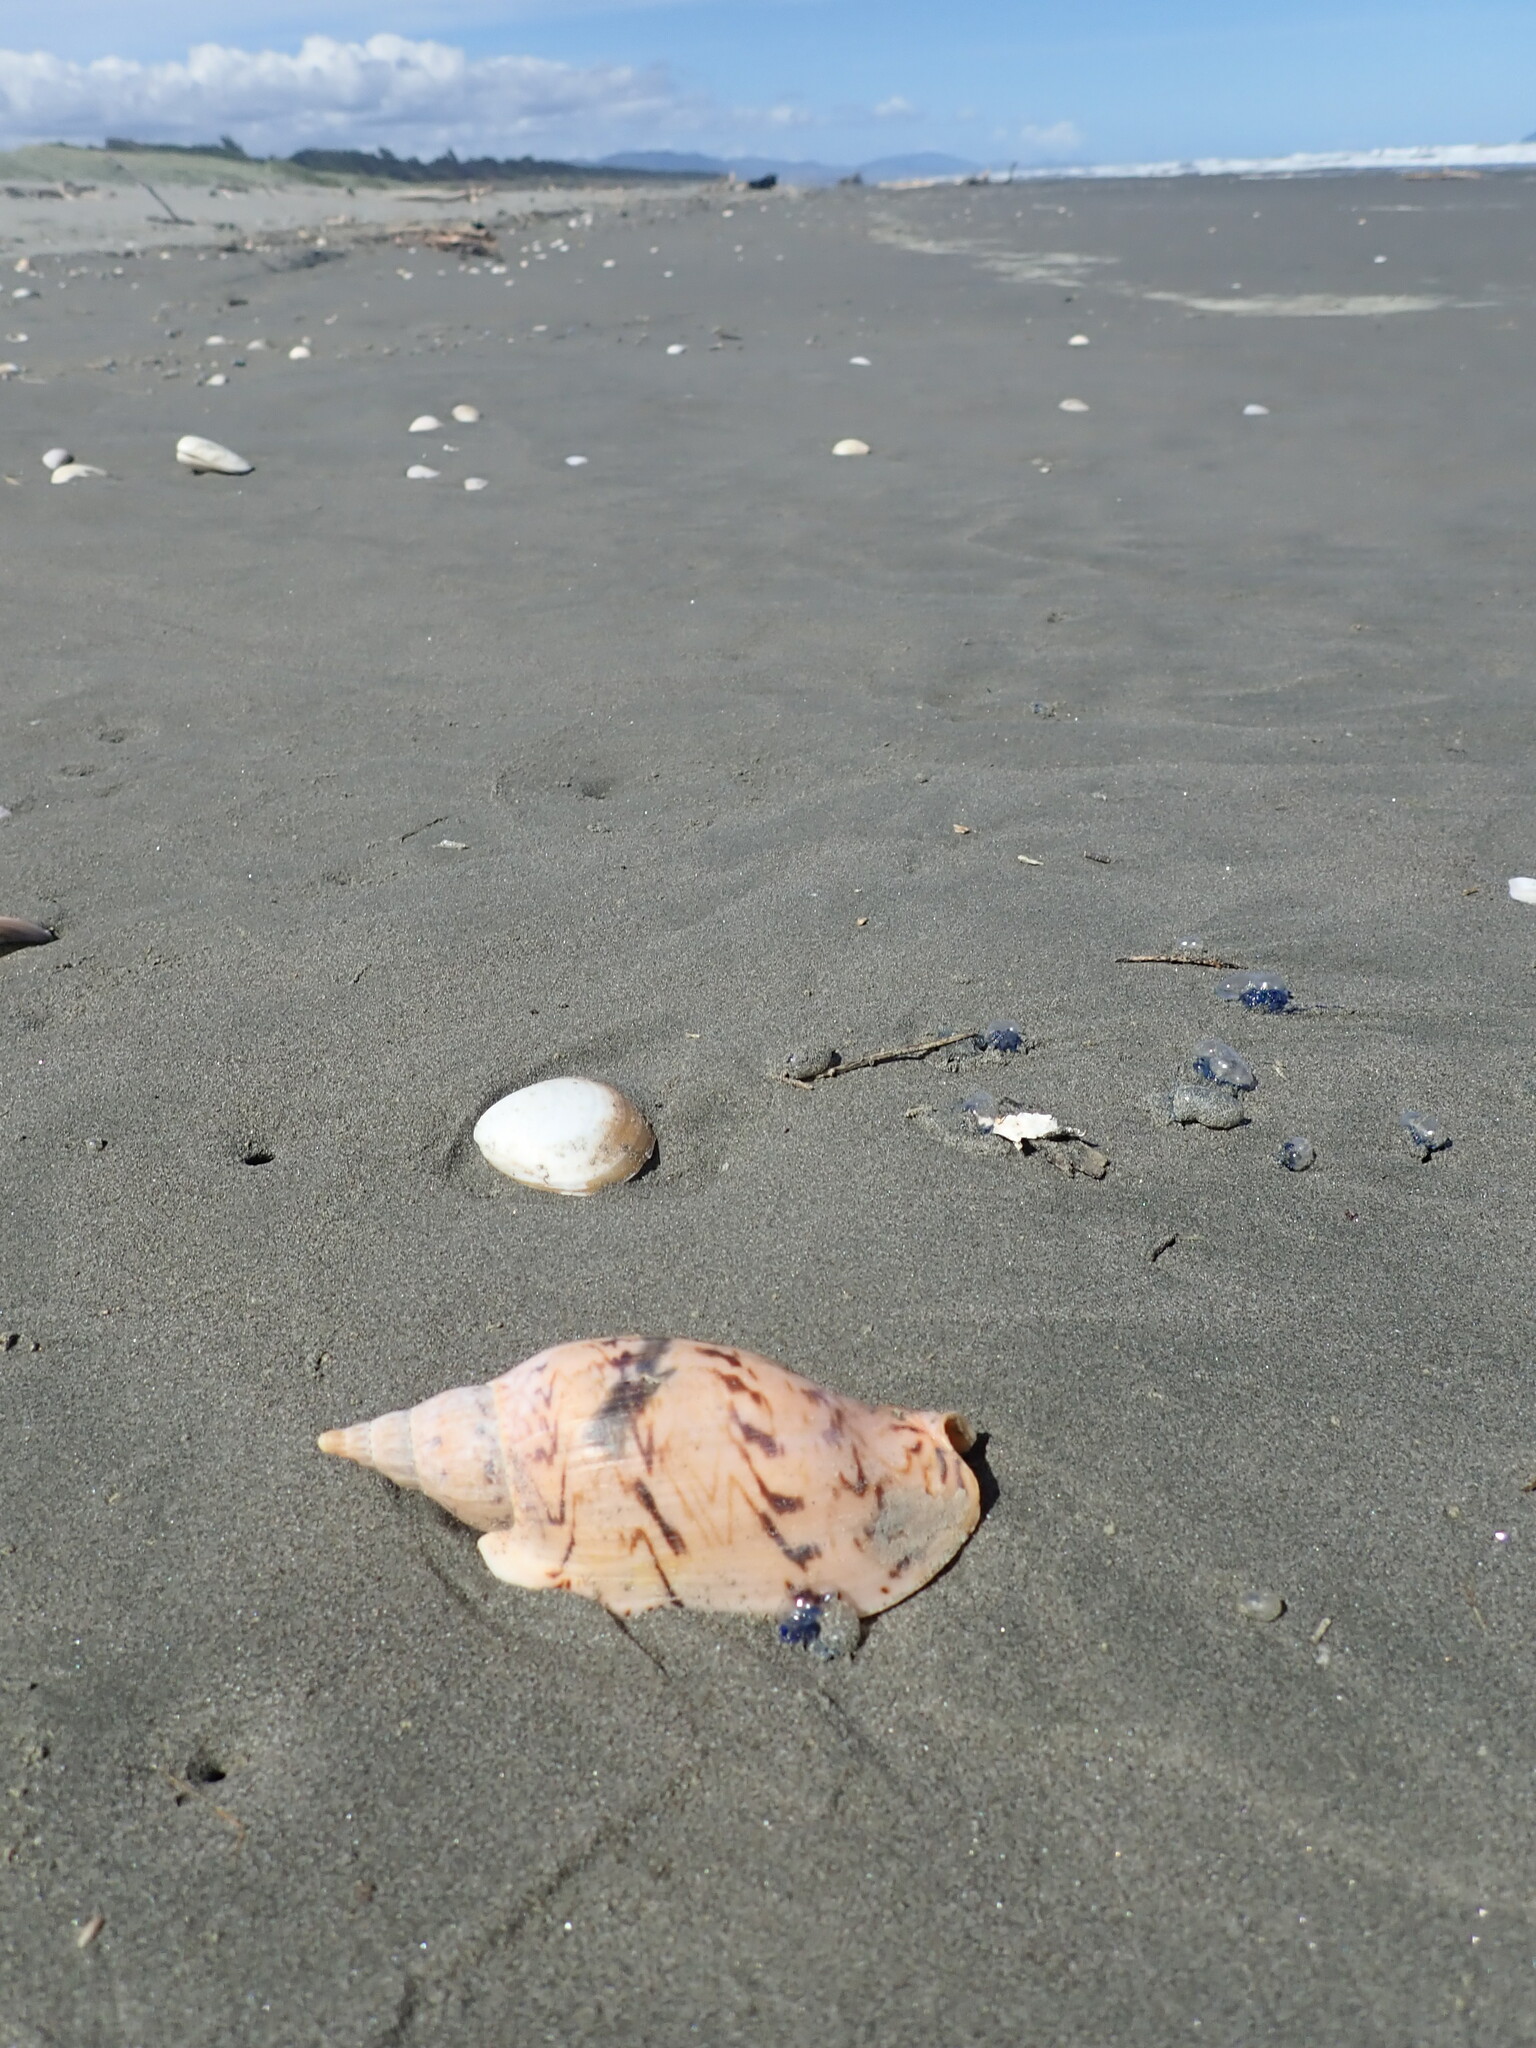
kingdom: Animalia
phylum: Mollusca
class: Gastropoda
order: Neogastropoda
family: Volutidae
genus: Alcithoe
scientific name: Alcithoe arabica
